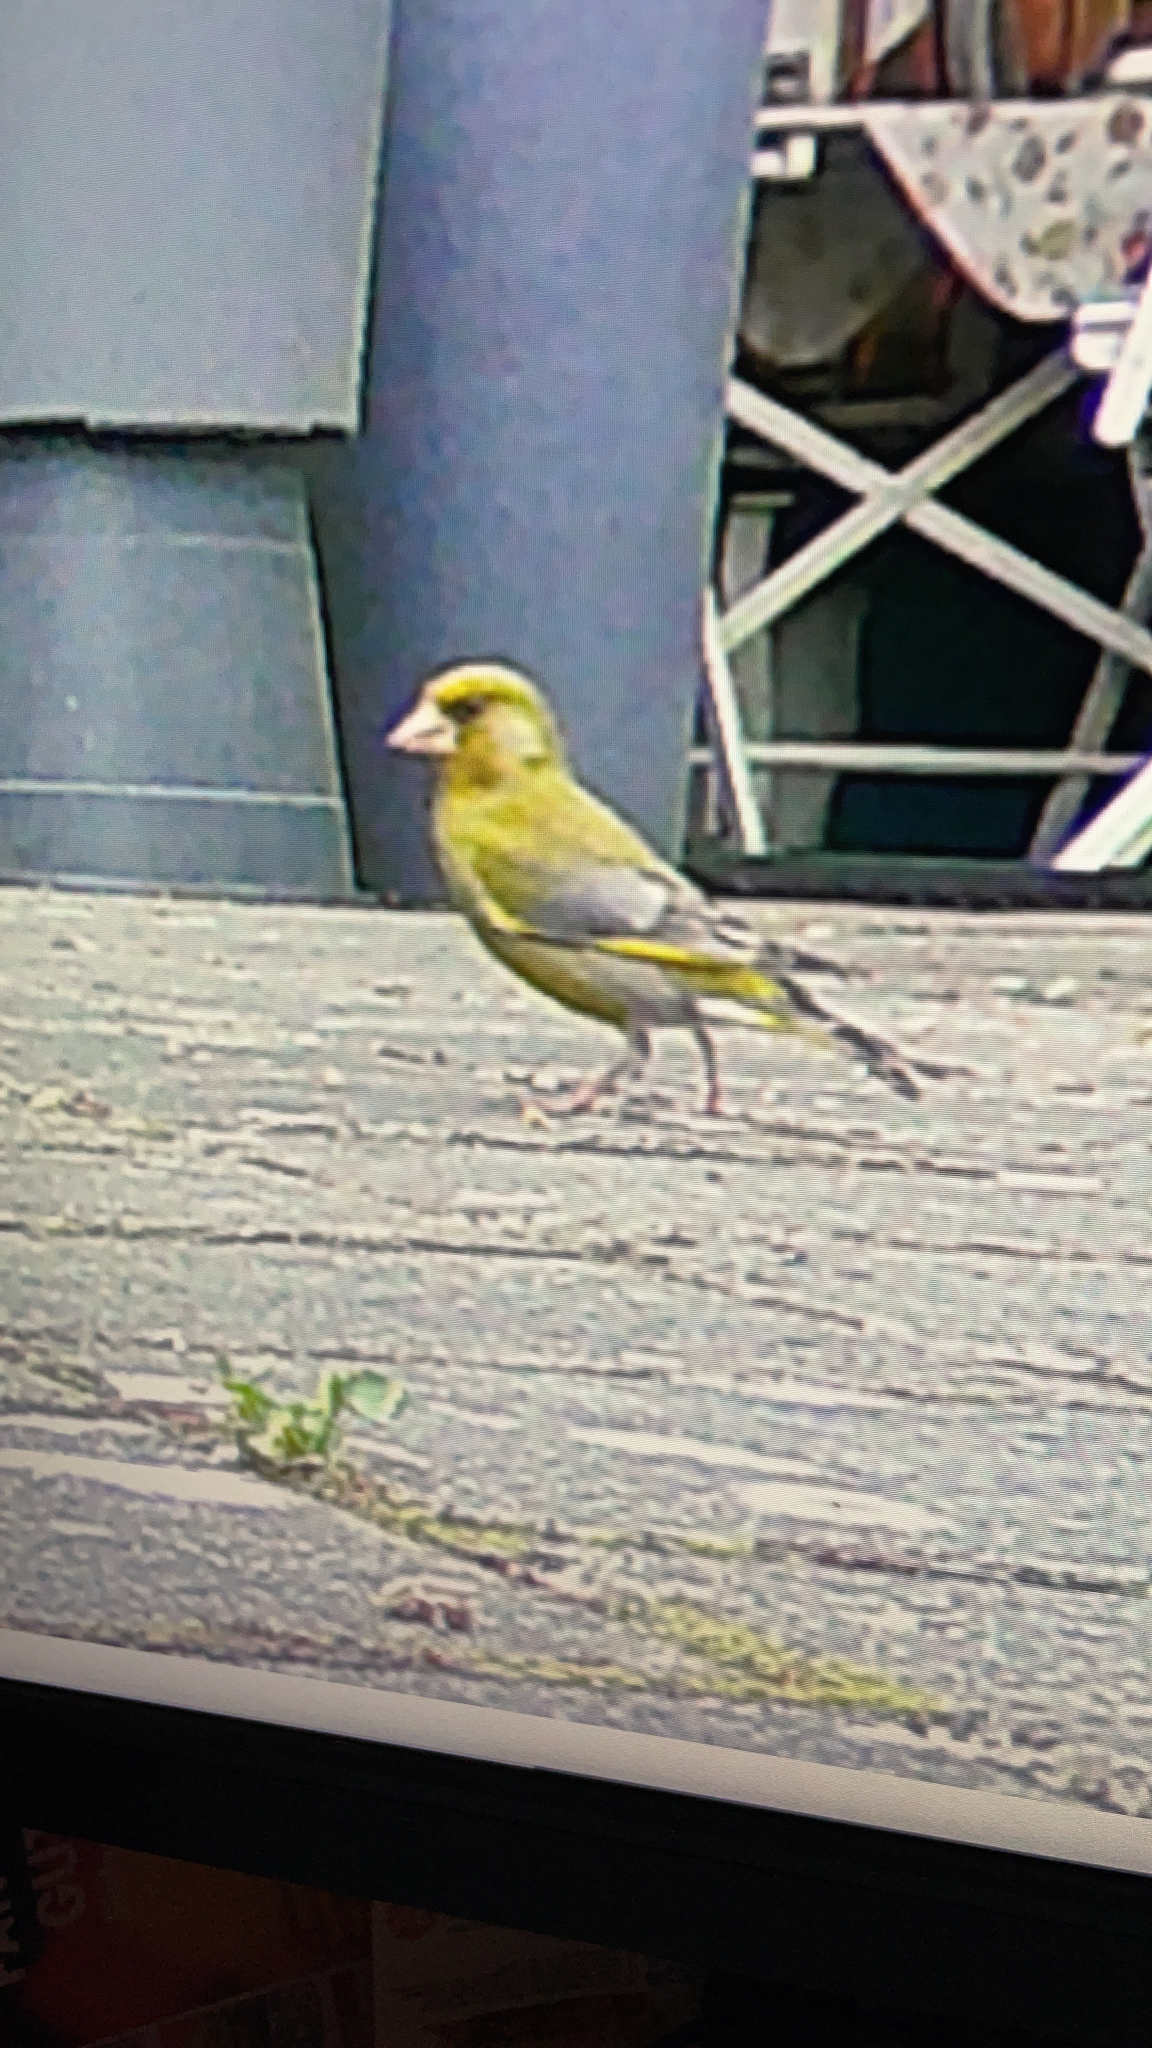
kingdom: Plantae
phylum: Tracheophyta
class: Liliopsida
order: Poales
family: Poaceae
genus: Chloris
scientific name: Chloris chloris
